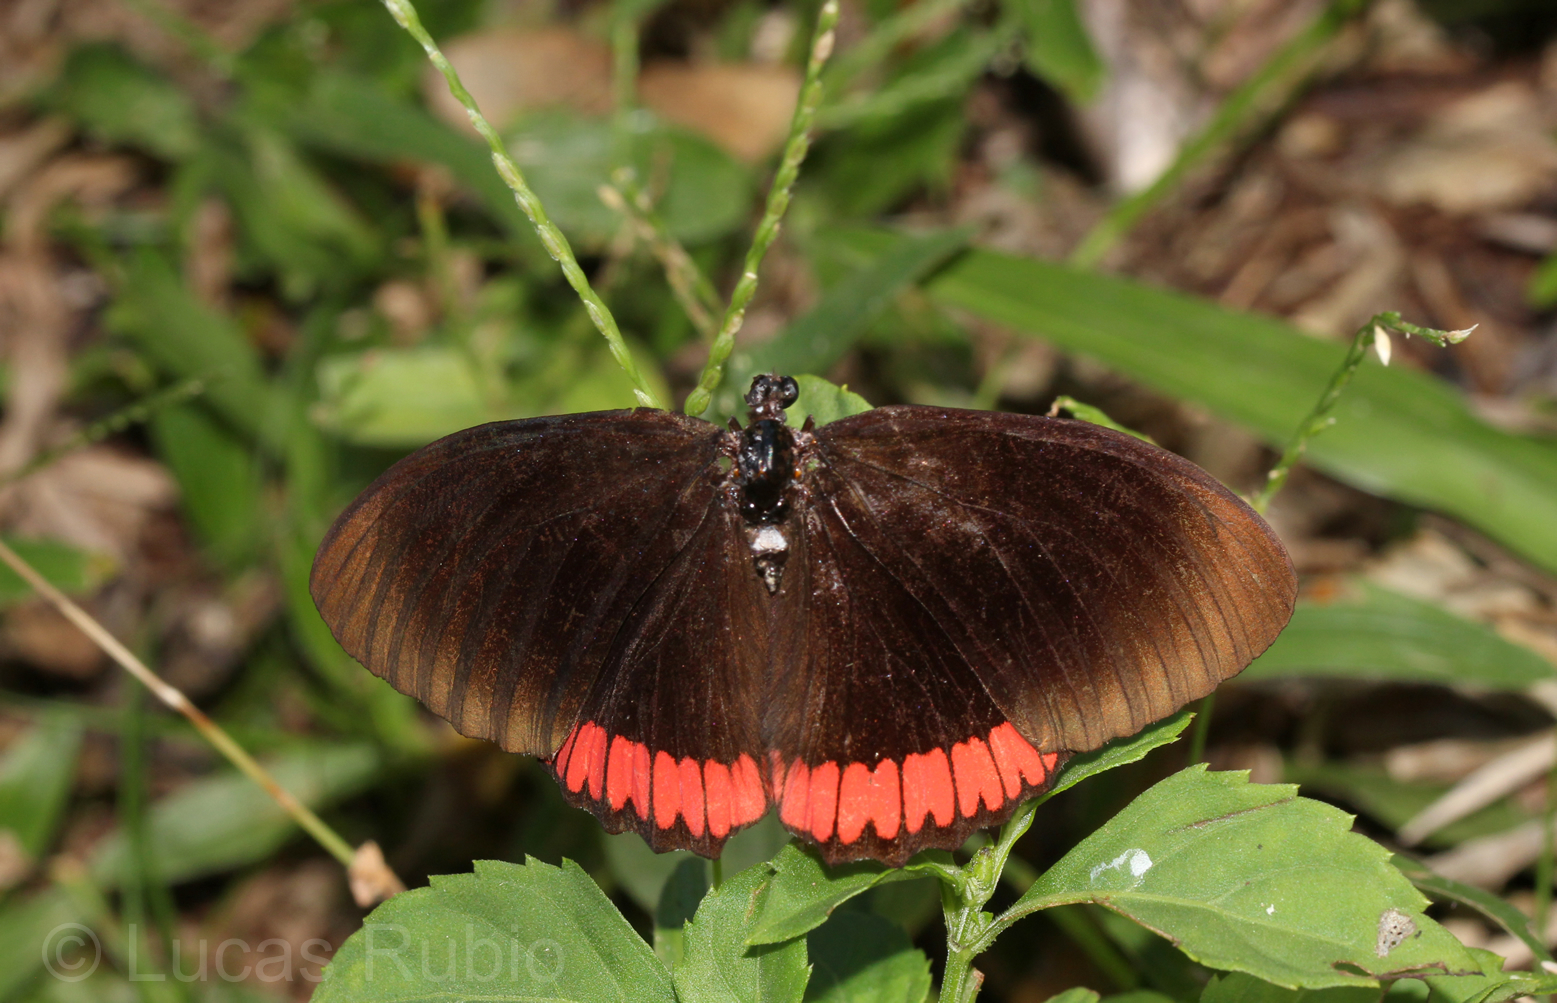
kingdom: Animalia
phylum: Arthropoda
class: Insecta
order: Lepidoptera
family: Sesiidae
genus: Sesia
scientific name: Sesia Biblis hyperia
